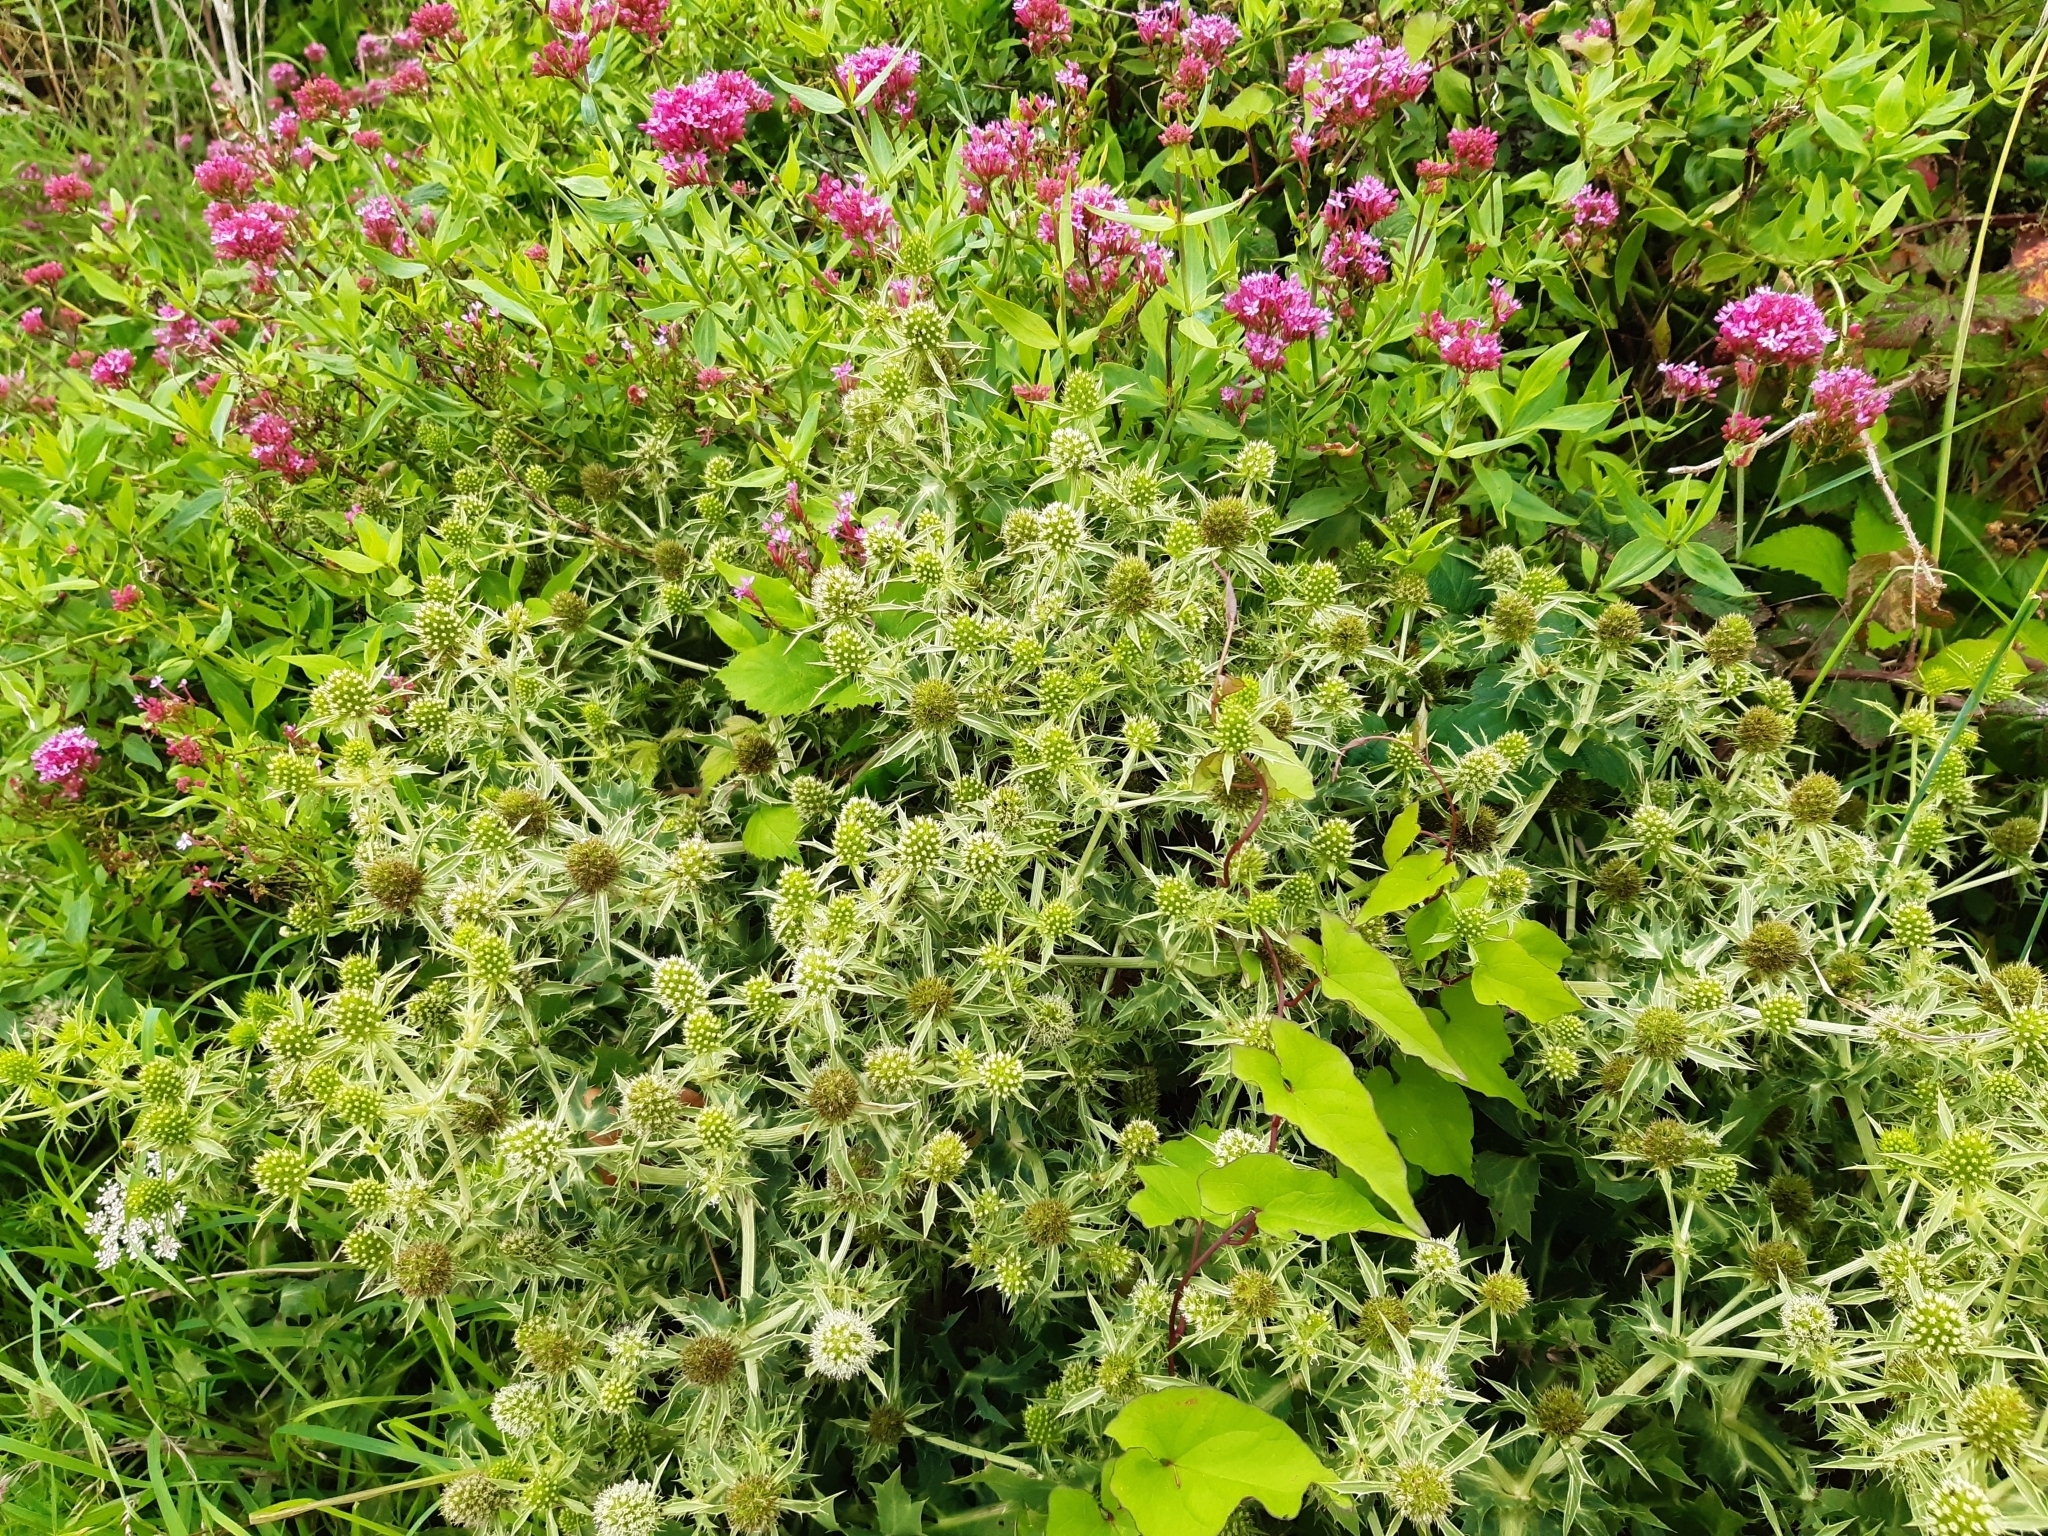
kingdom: Plantae
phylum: Tracheophyta
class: Magnoliopsida
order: Apiales
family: Apiaceae
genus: Eryngium
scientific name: Eryngium campestre
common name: Field eryngo
